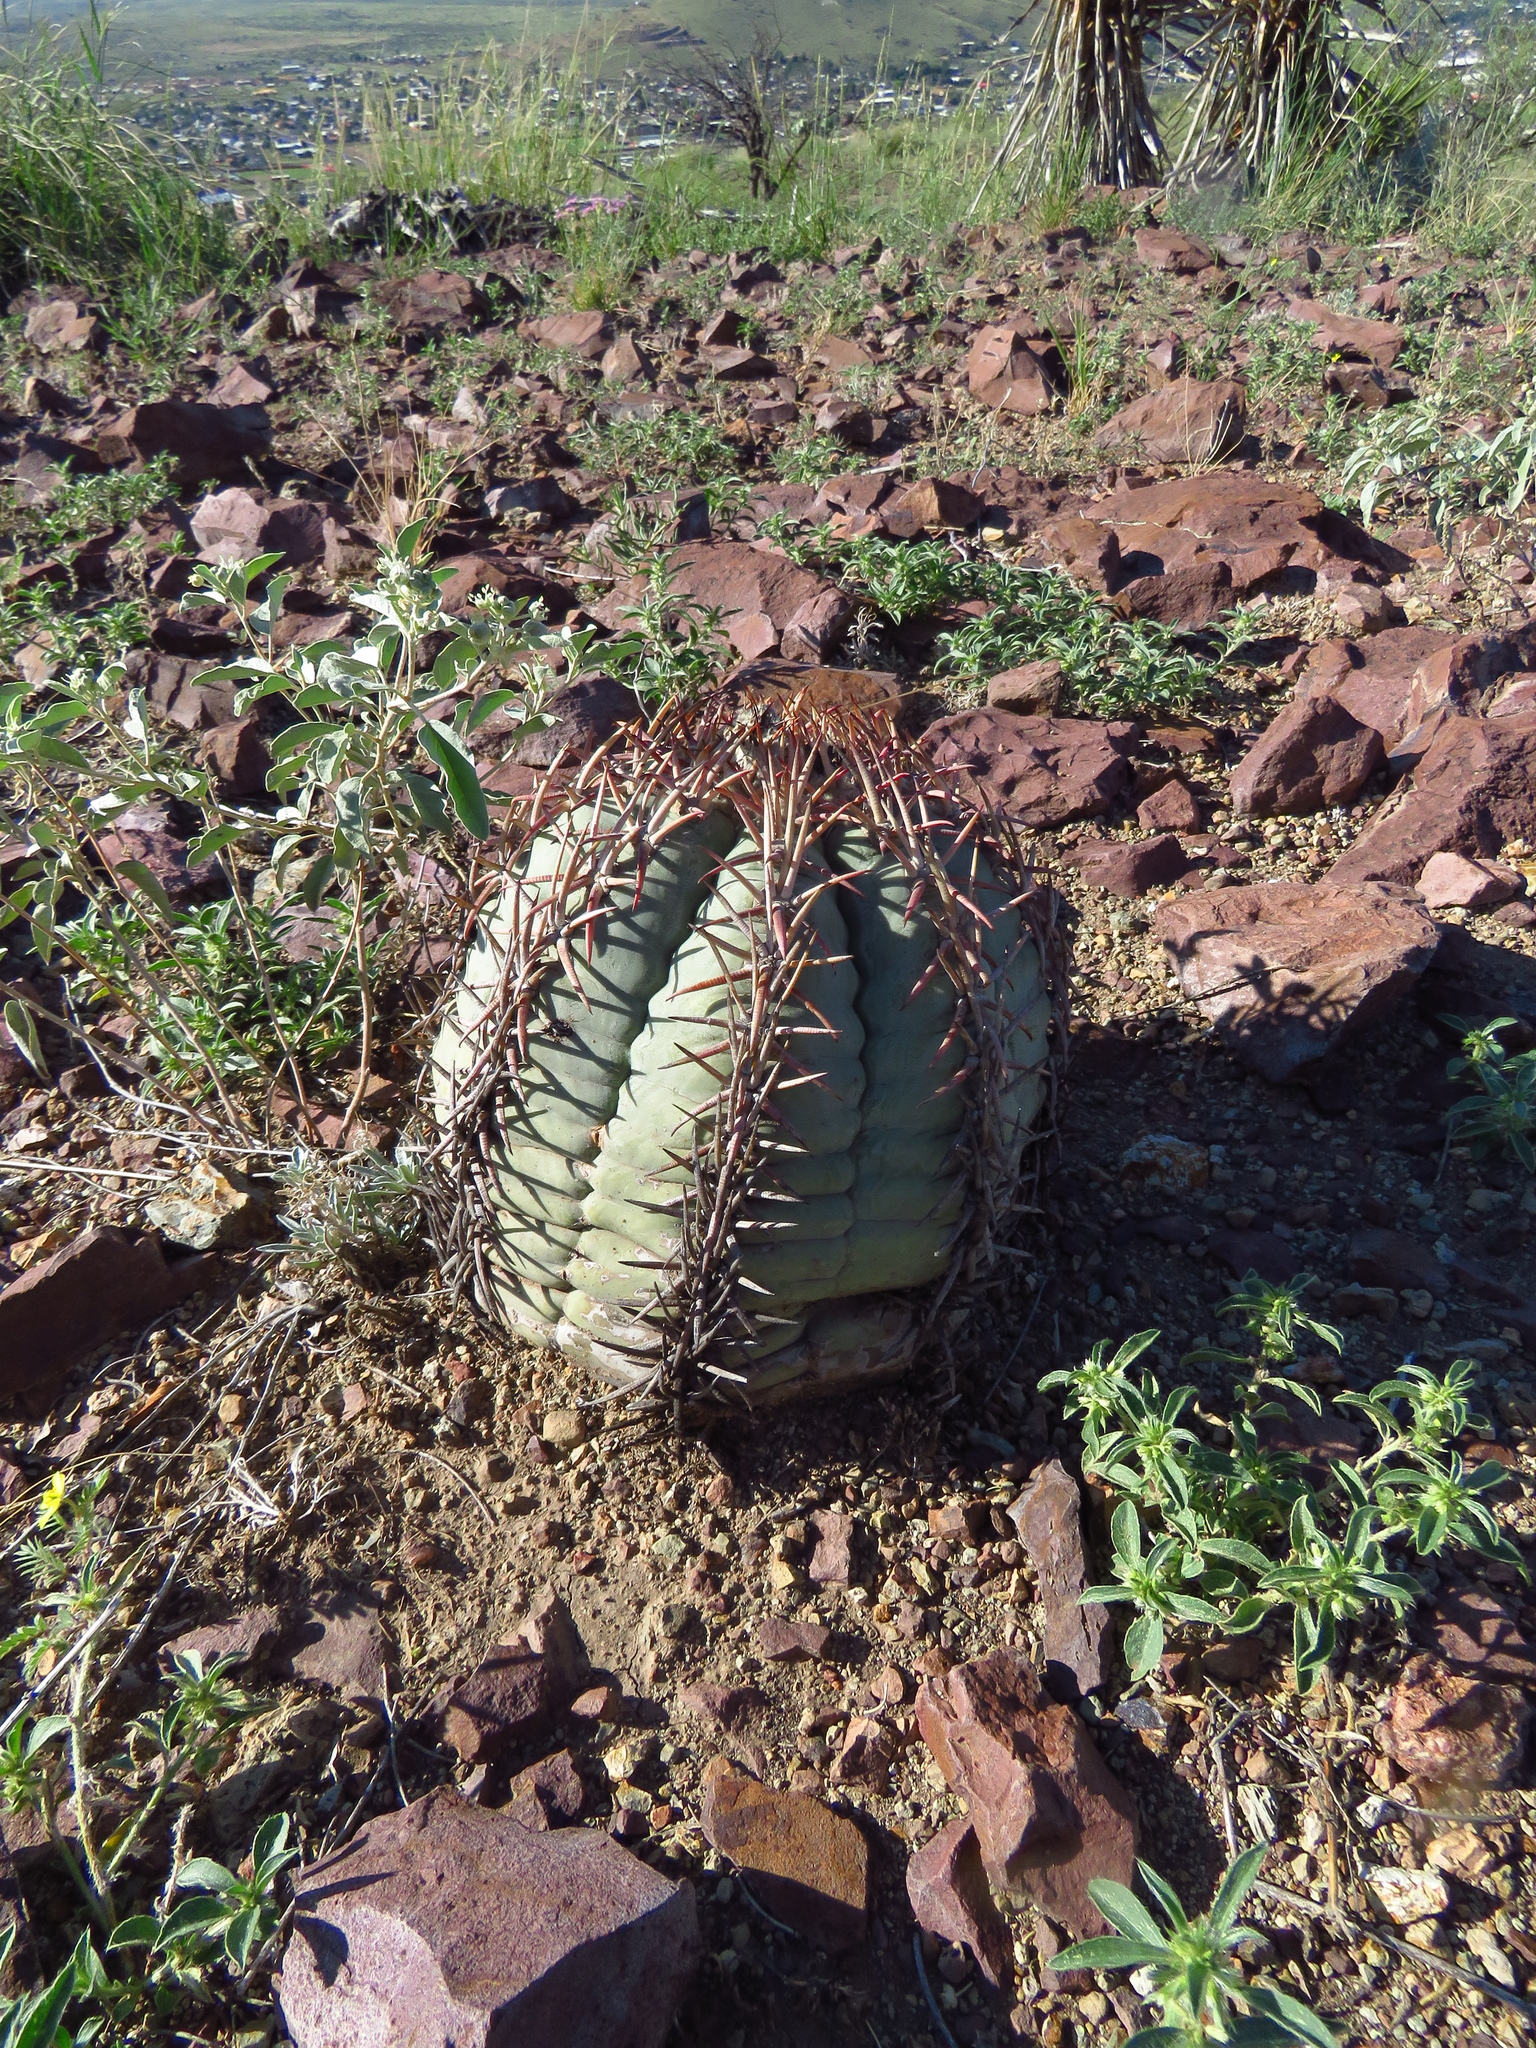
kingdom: Plantae
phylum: Tracheophyta
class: Magnoliopsida
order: Caryophyllales
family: Cactaceae
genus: Echinocactus
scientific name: Echinocactus horizonthalonius
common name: Devilshead
